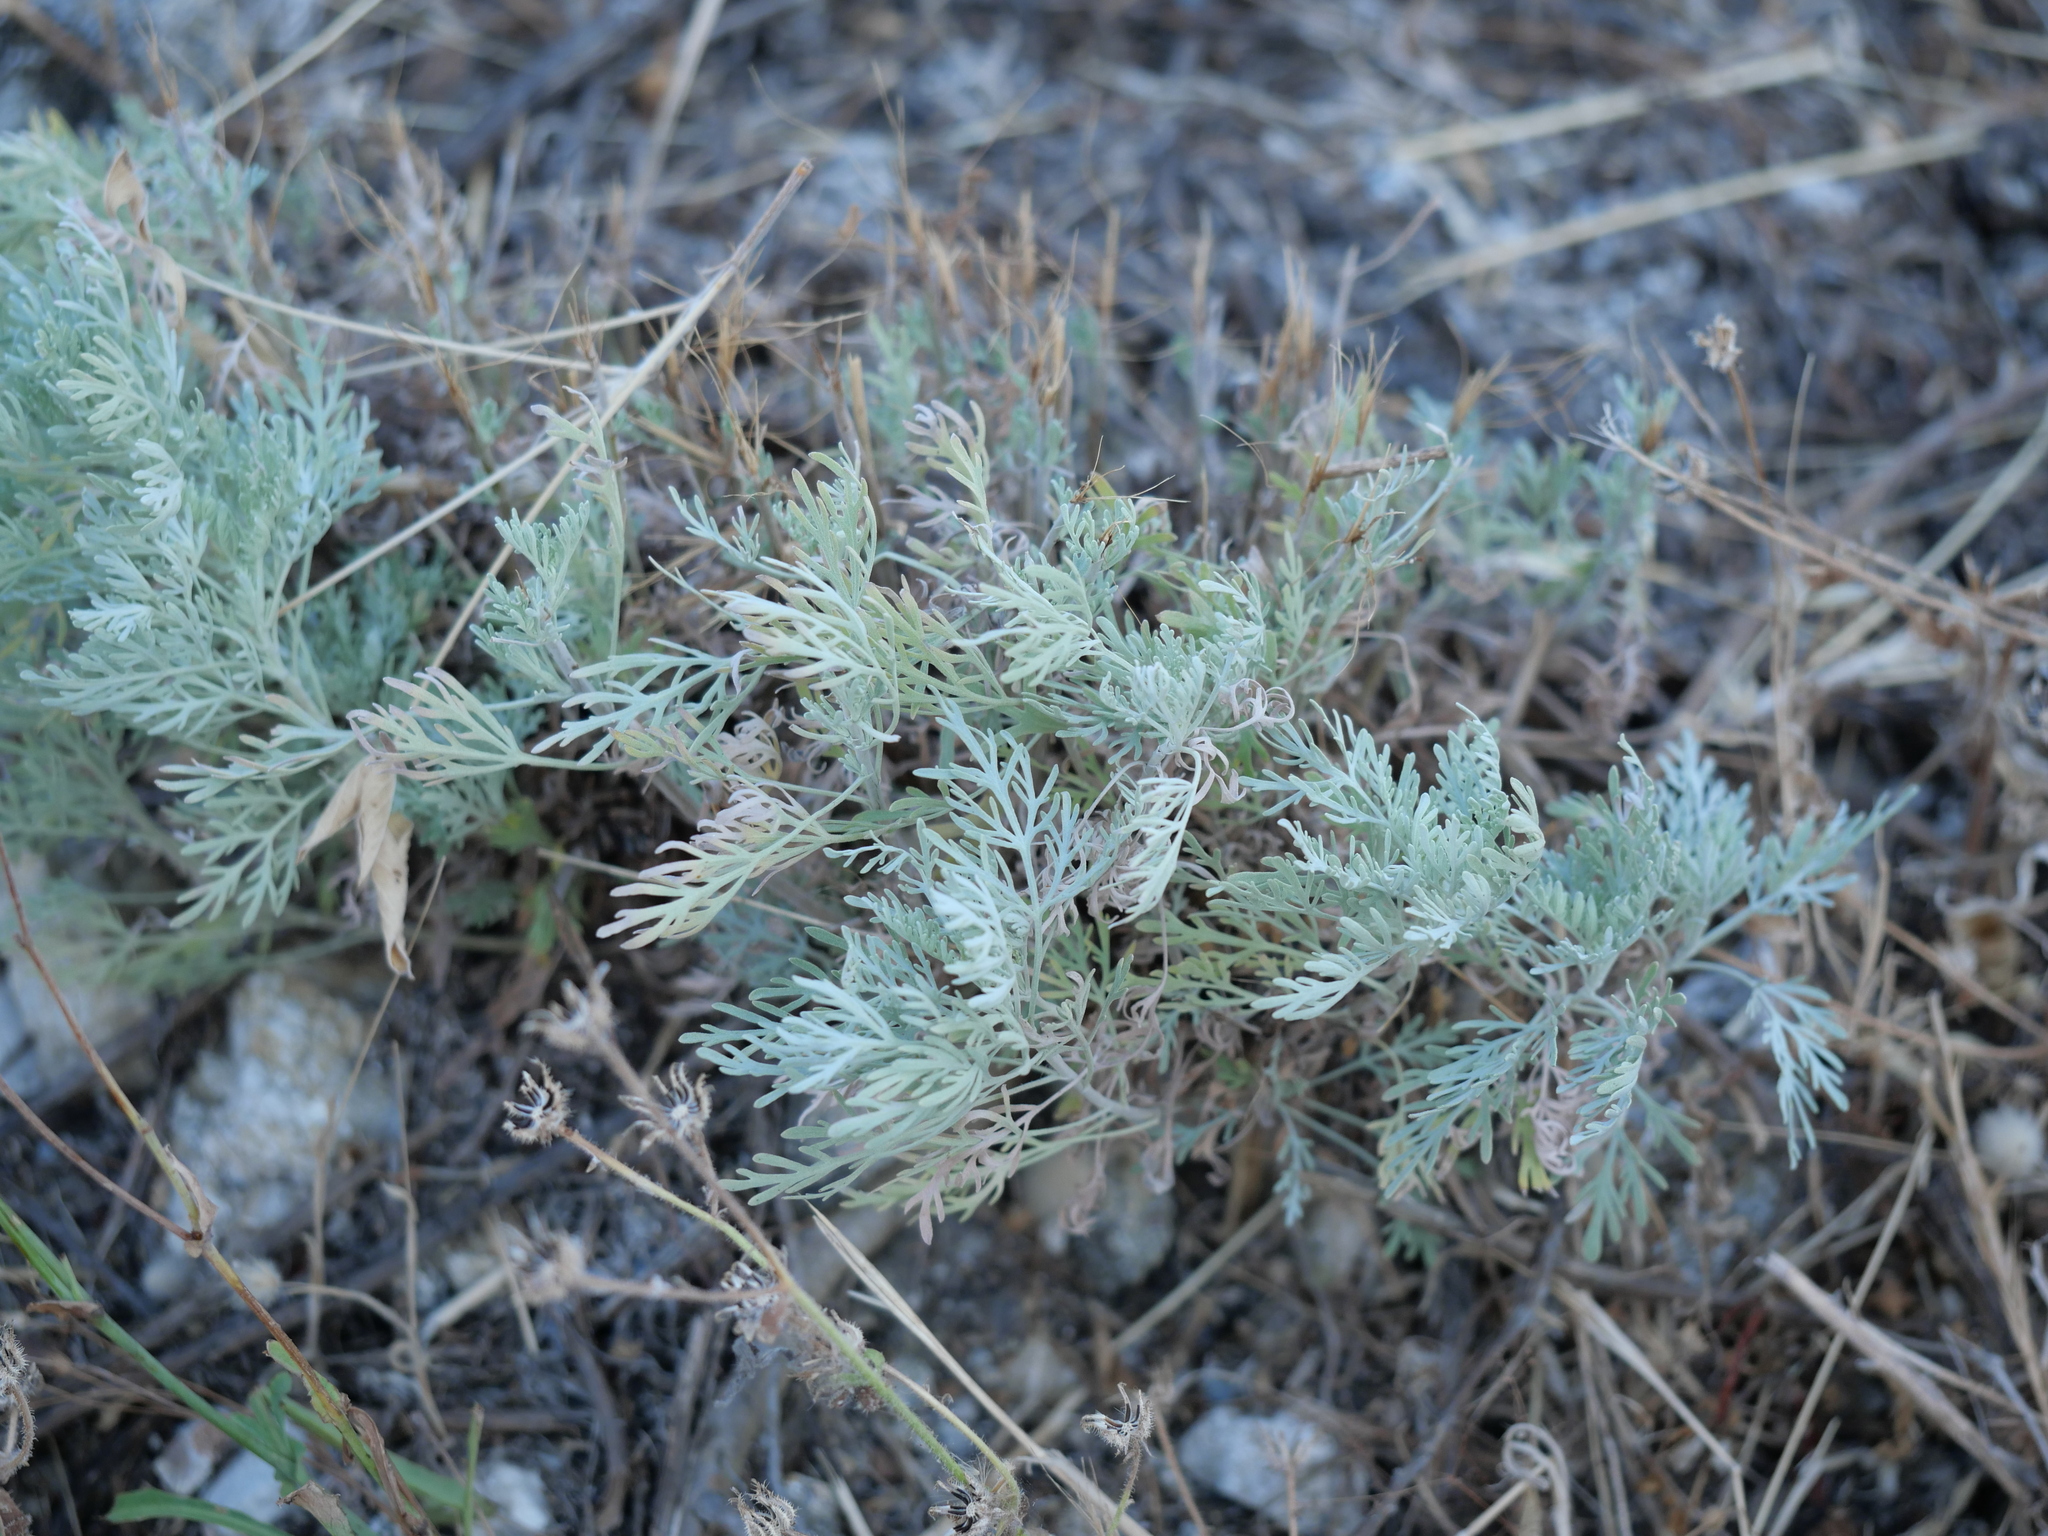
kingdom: Plantae
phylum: Tracheophyta
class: Magnoliopsida
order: Asterales
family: Asteraceae
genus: Artemisia
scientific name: Artemisia arborescens
